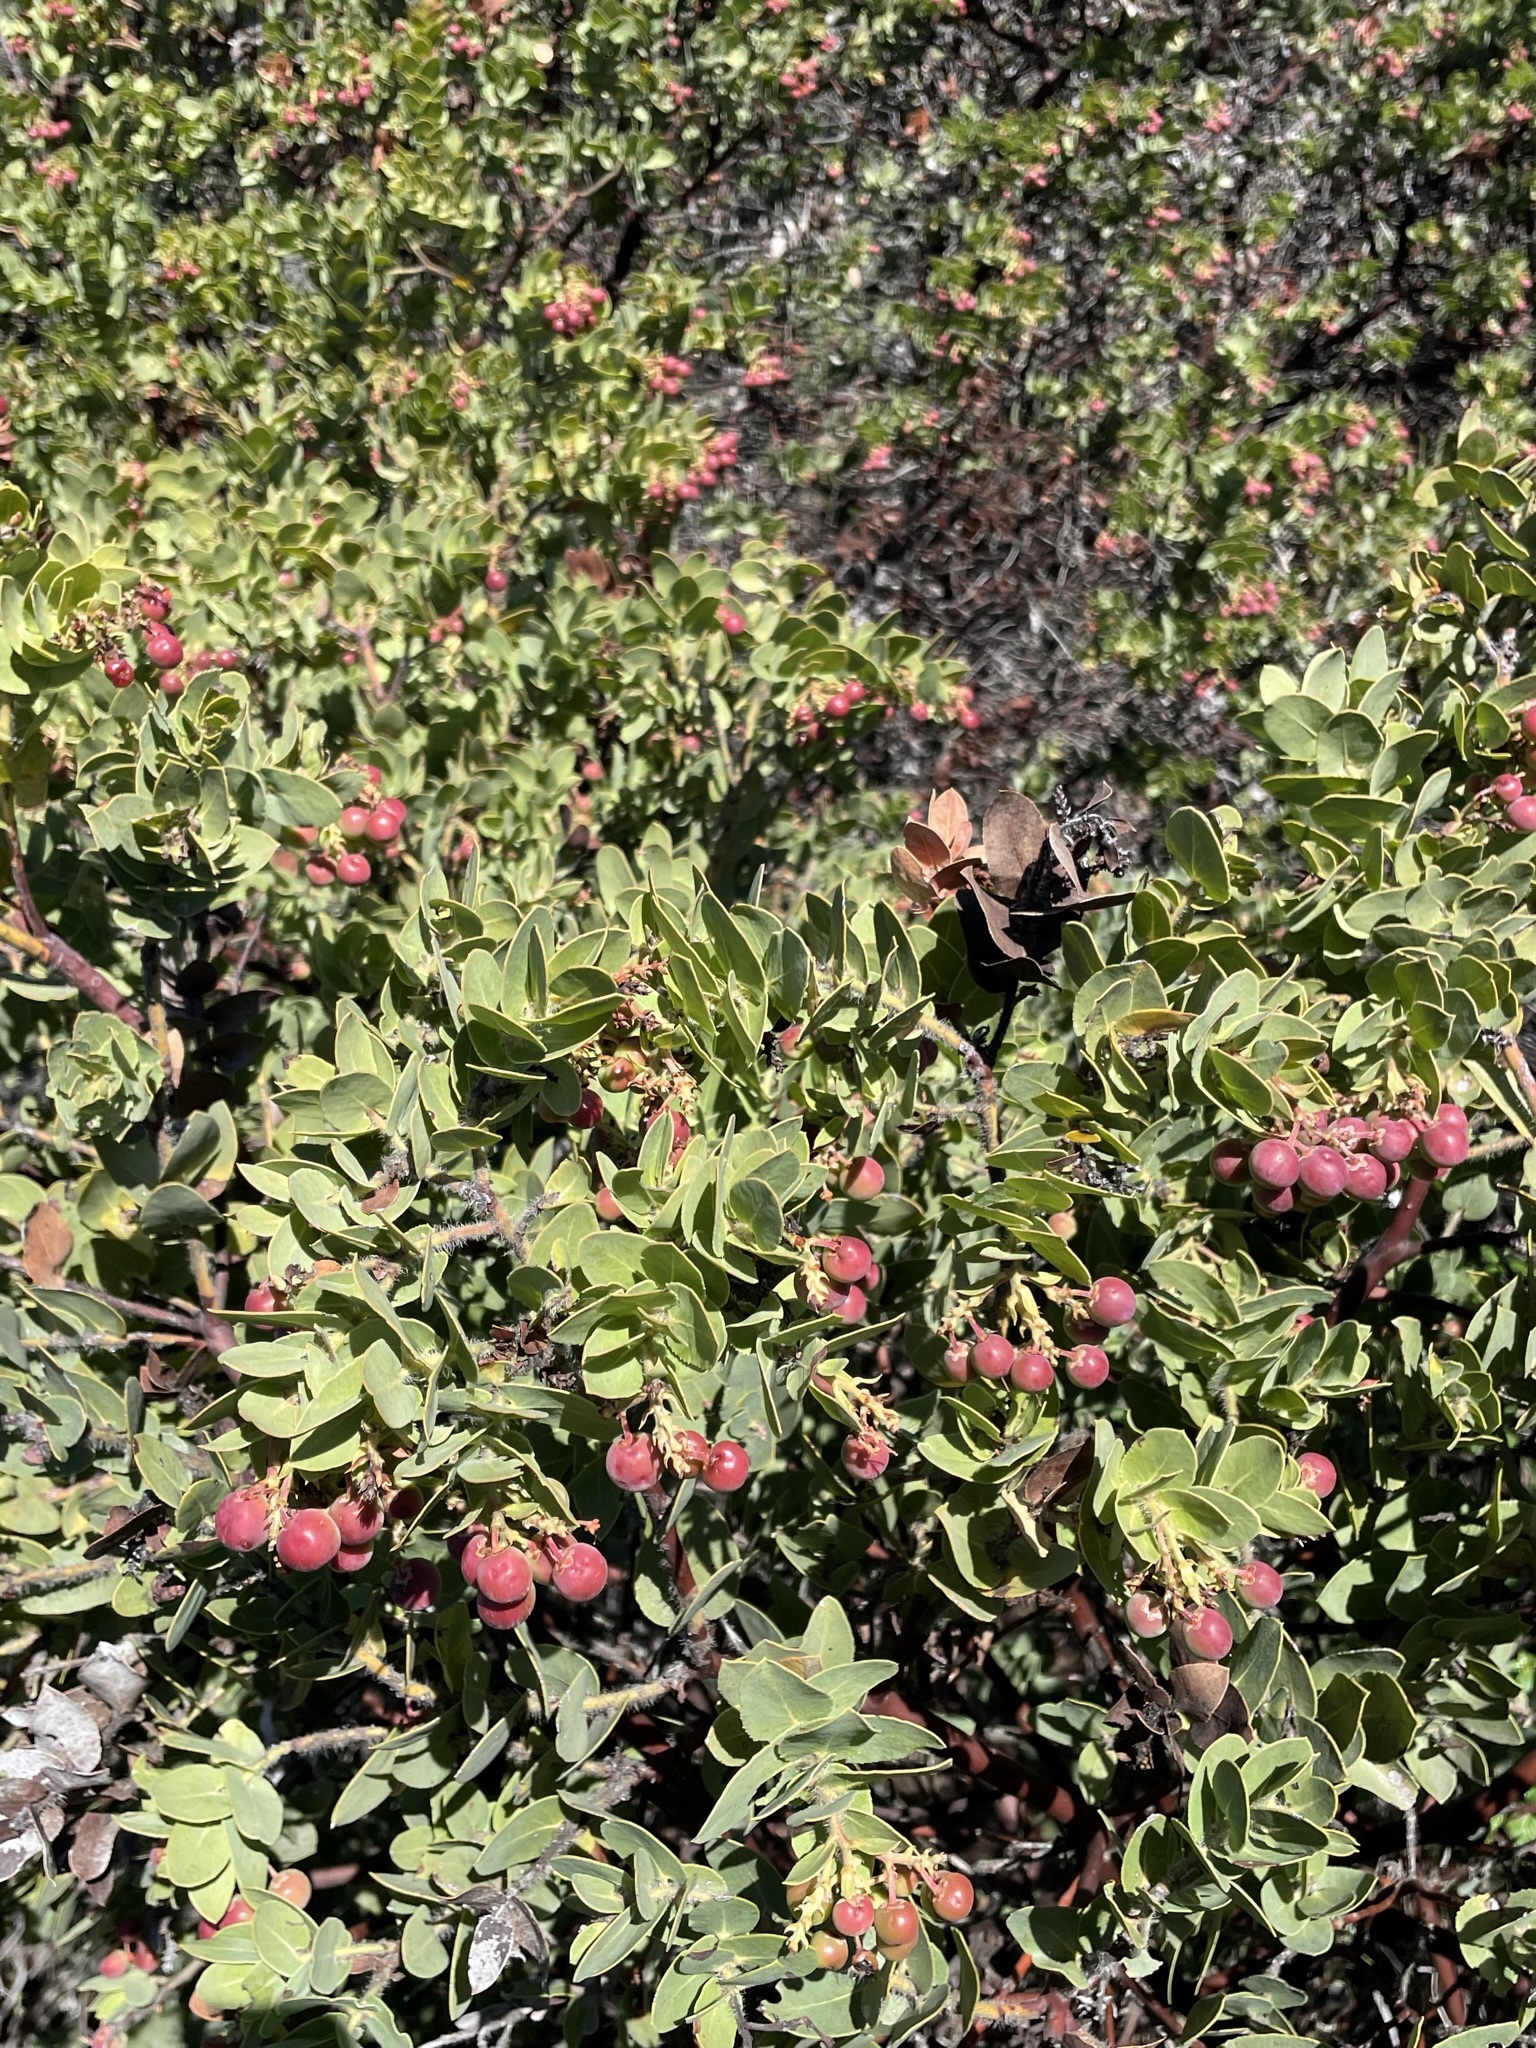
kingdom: Plantae
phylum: Tracheophyta
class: Magnoliopsida
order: Ericales
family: Ericaceae
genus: Arctostaphylos
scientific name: Arctostaphylos refugioensis
